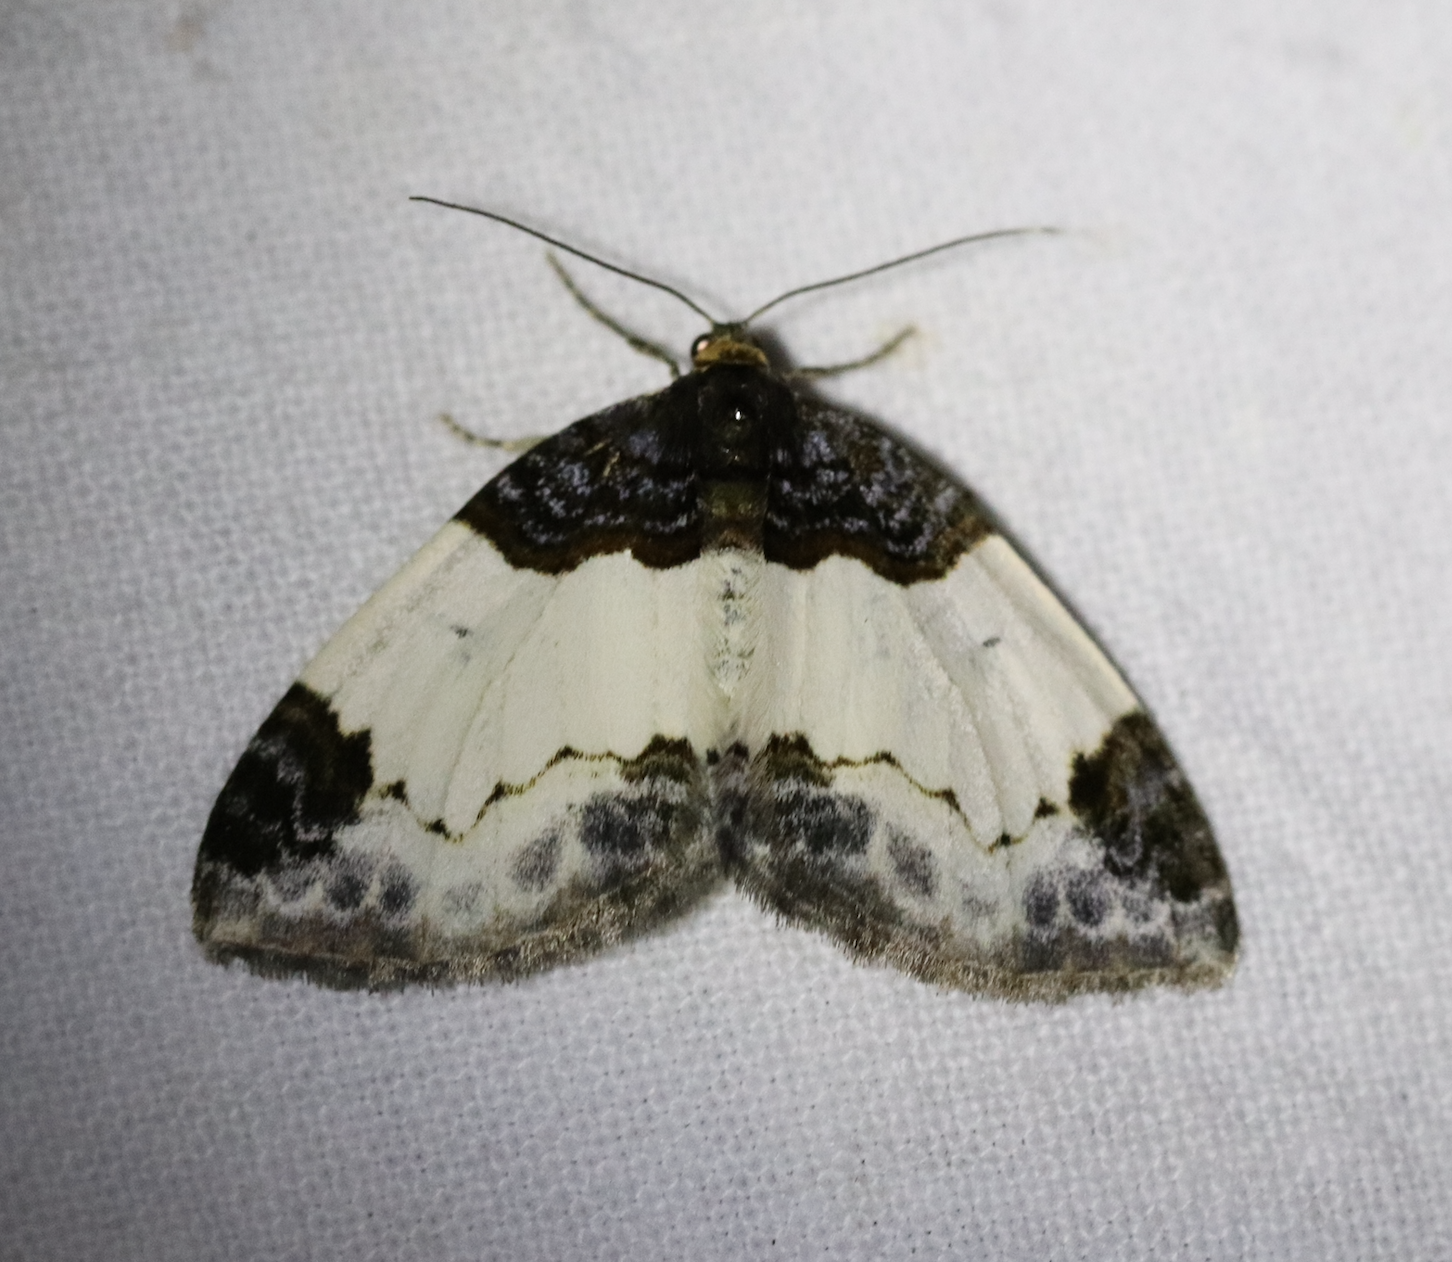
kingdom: Animalia
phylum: Arthropoda
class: Insecta
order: Lepidoptera
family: Geometridae
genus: Mesoleuca
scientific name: Mesoleuca albicillata
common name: Beautiful carpet
